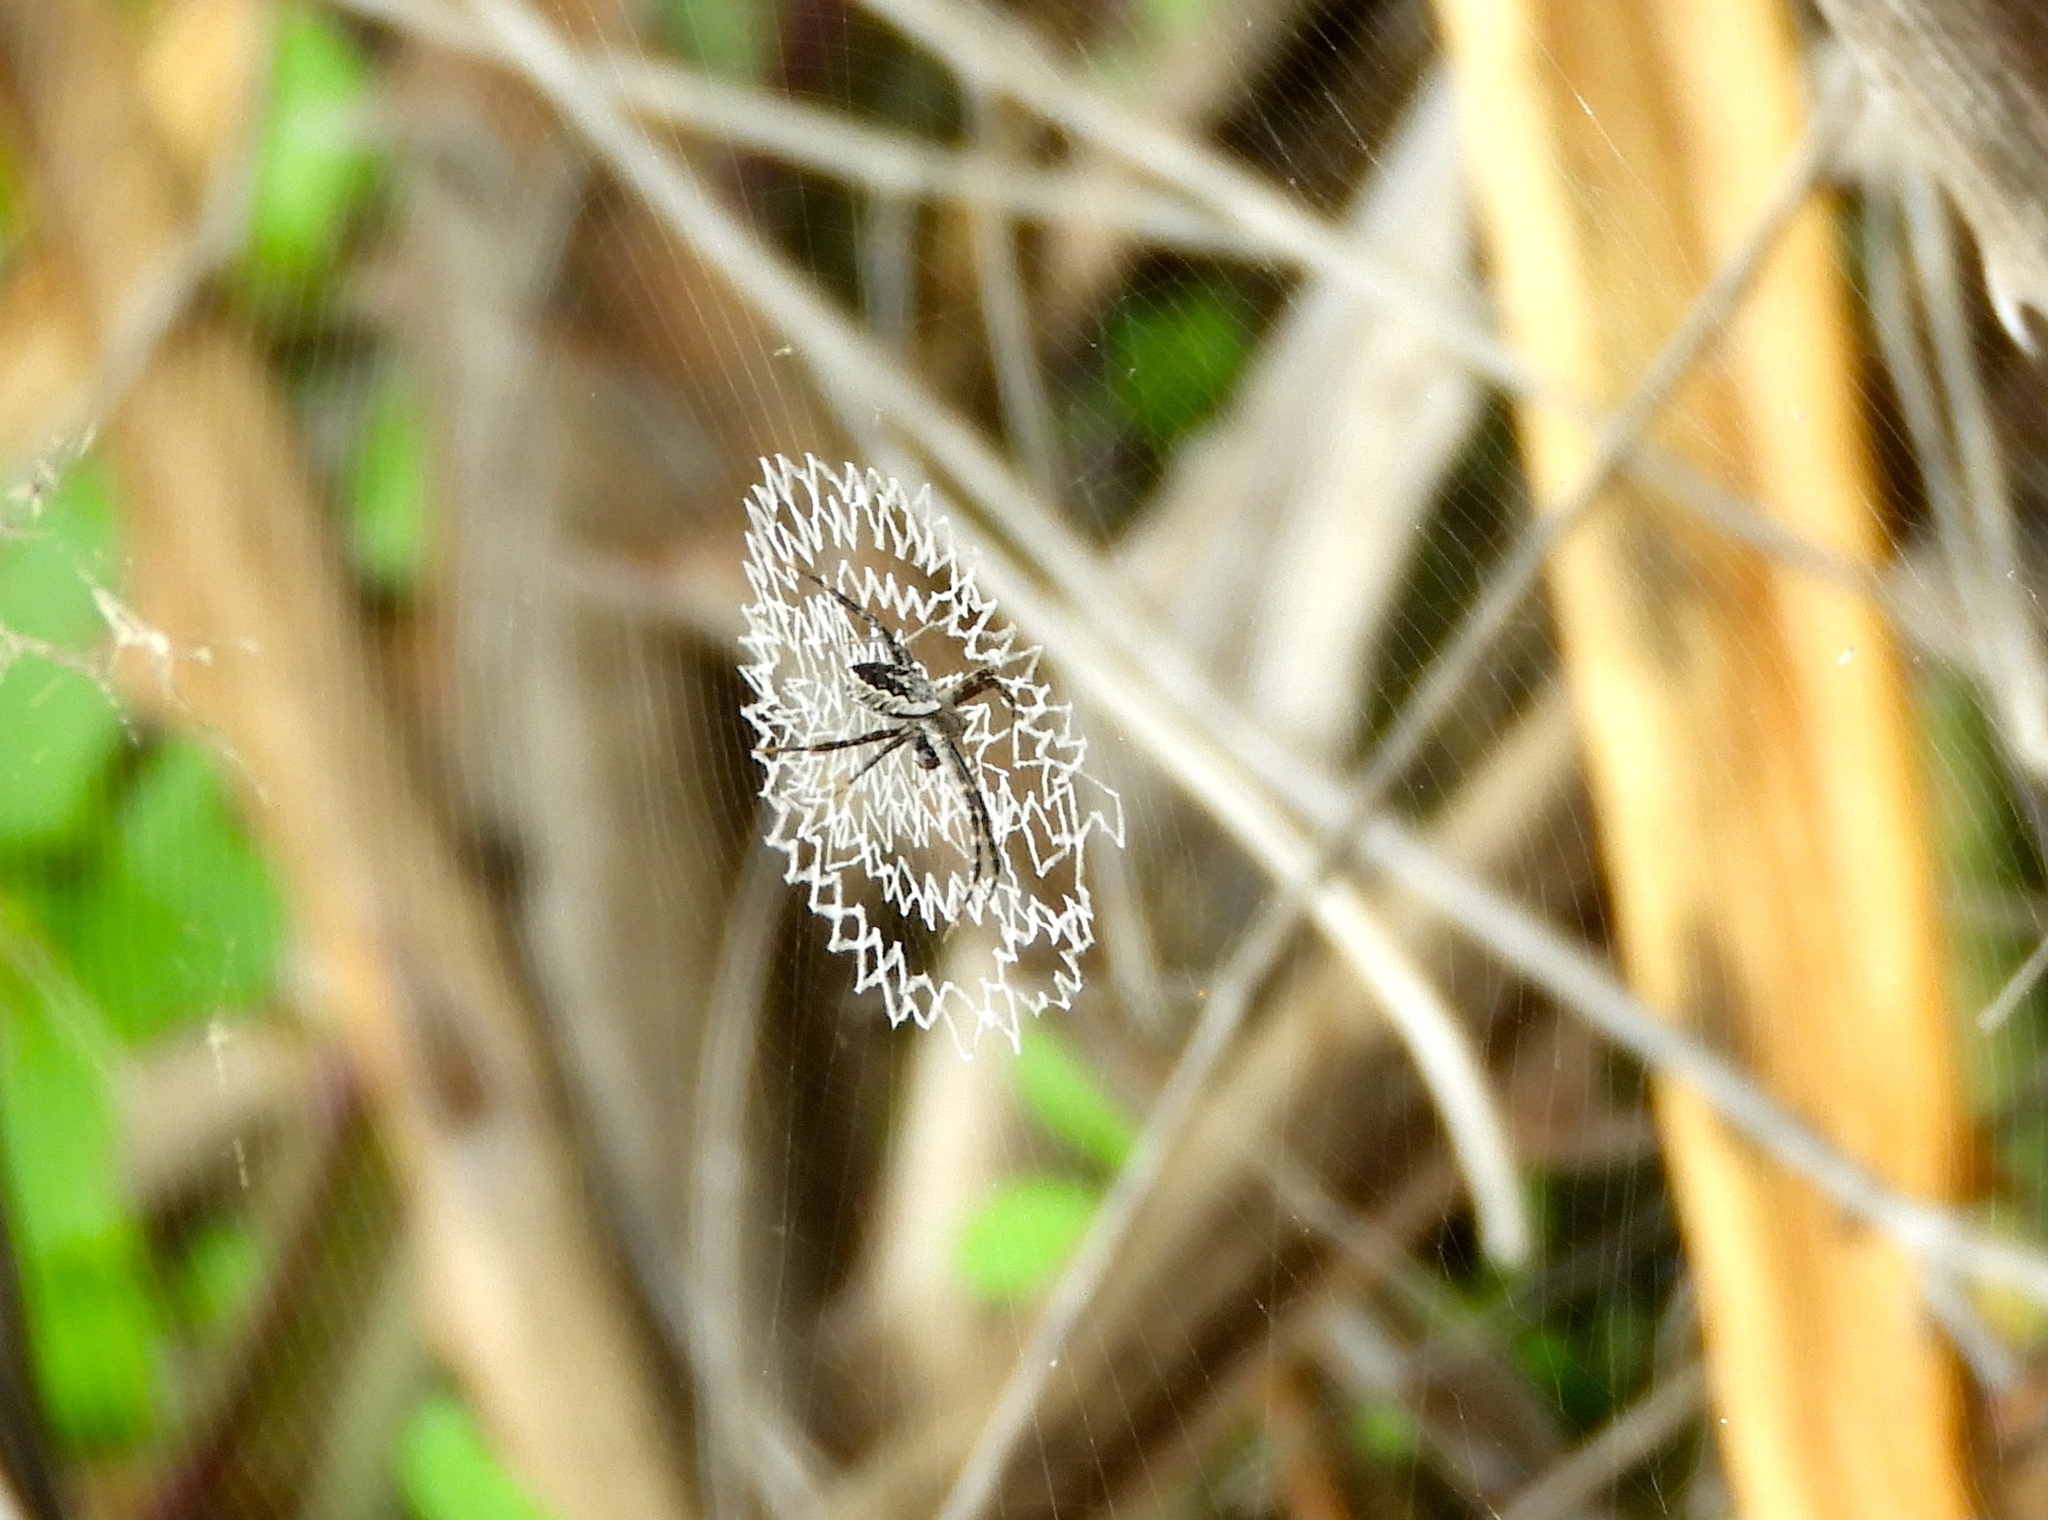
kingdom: Animalia
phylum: Arthropoda
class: Arachnida
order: Araneae
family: Araneidae
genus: Argiope
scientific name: Argiope
